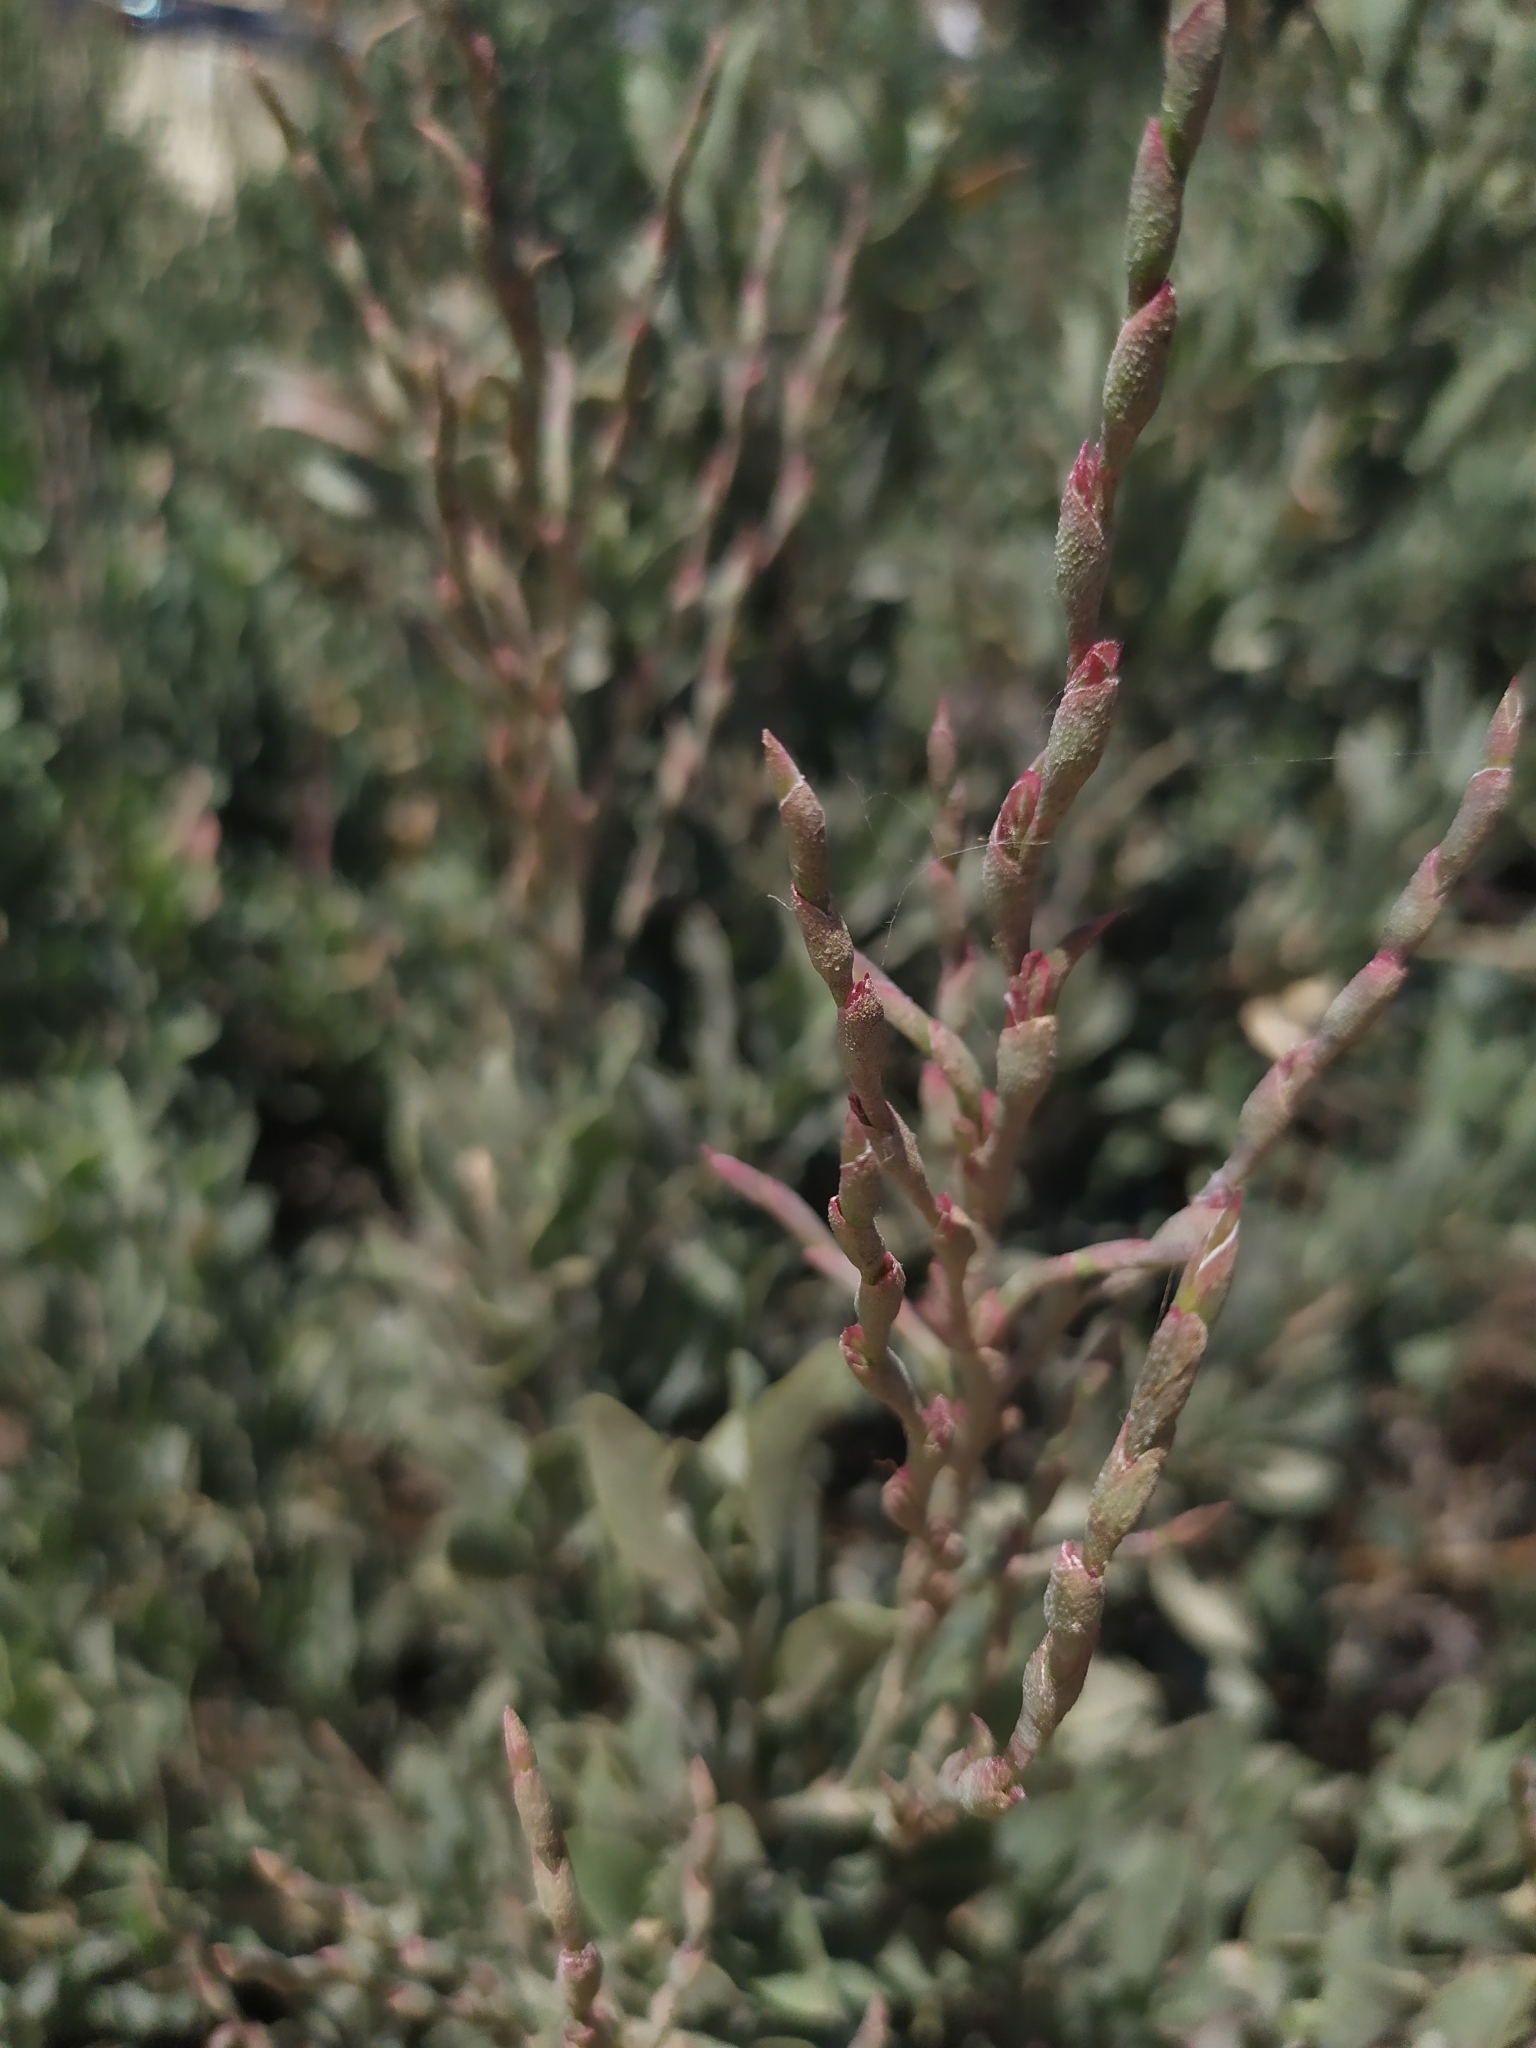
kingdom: Plantae
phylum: Tracheophyta
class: Magnoliopsida
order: Caryophyllales
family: Plumbaginaceae
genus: Limoniastrum
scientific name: Limoniastrum monopetalum
